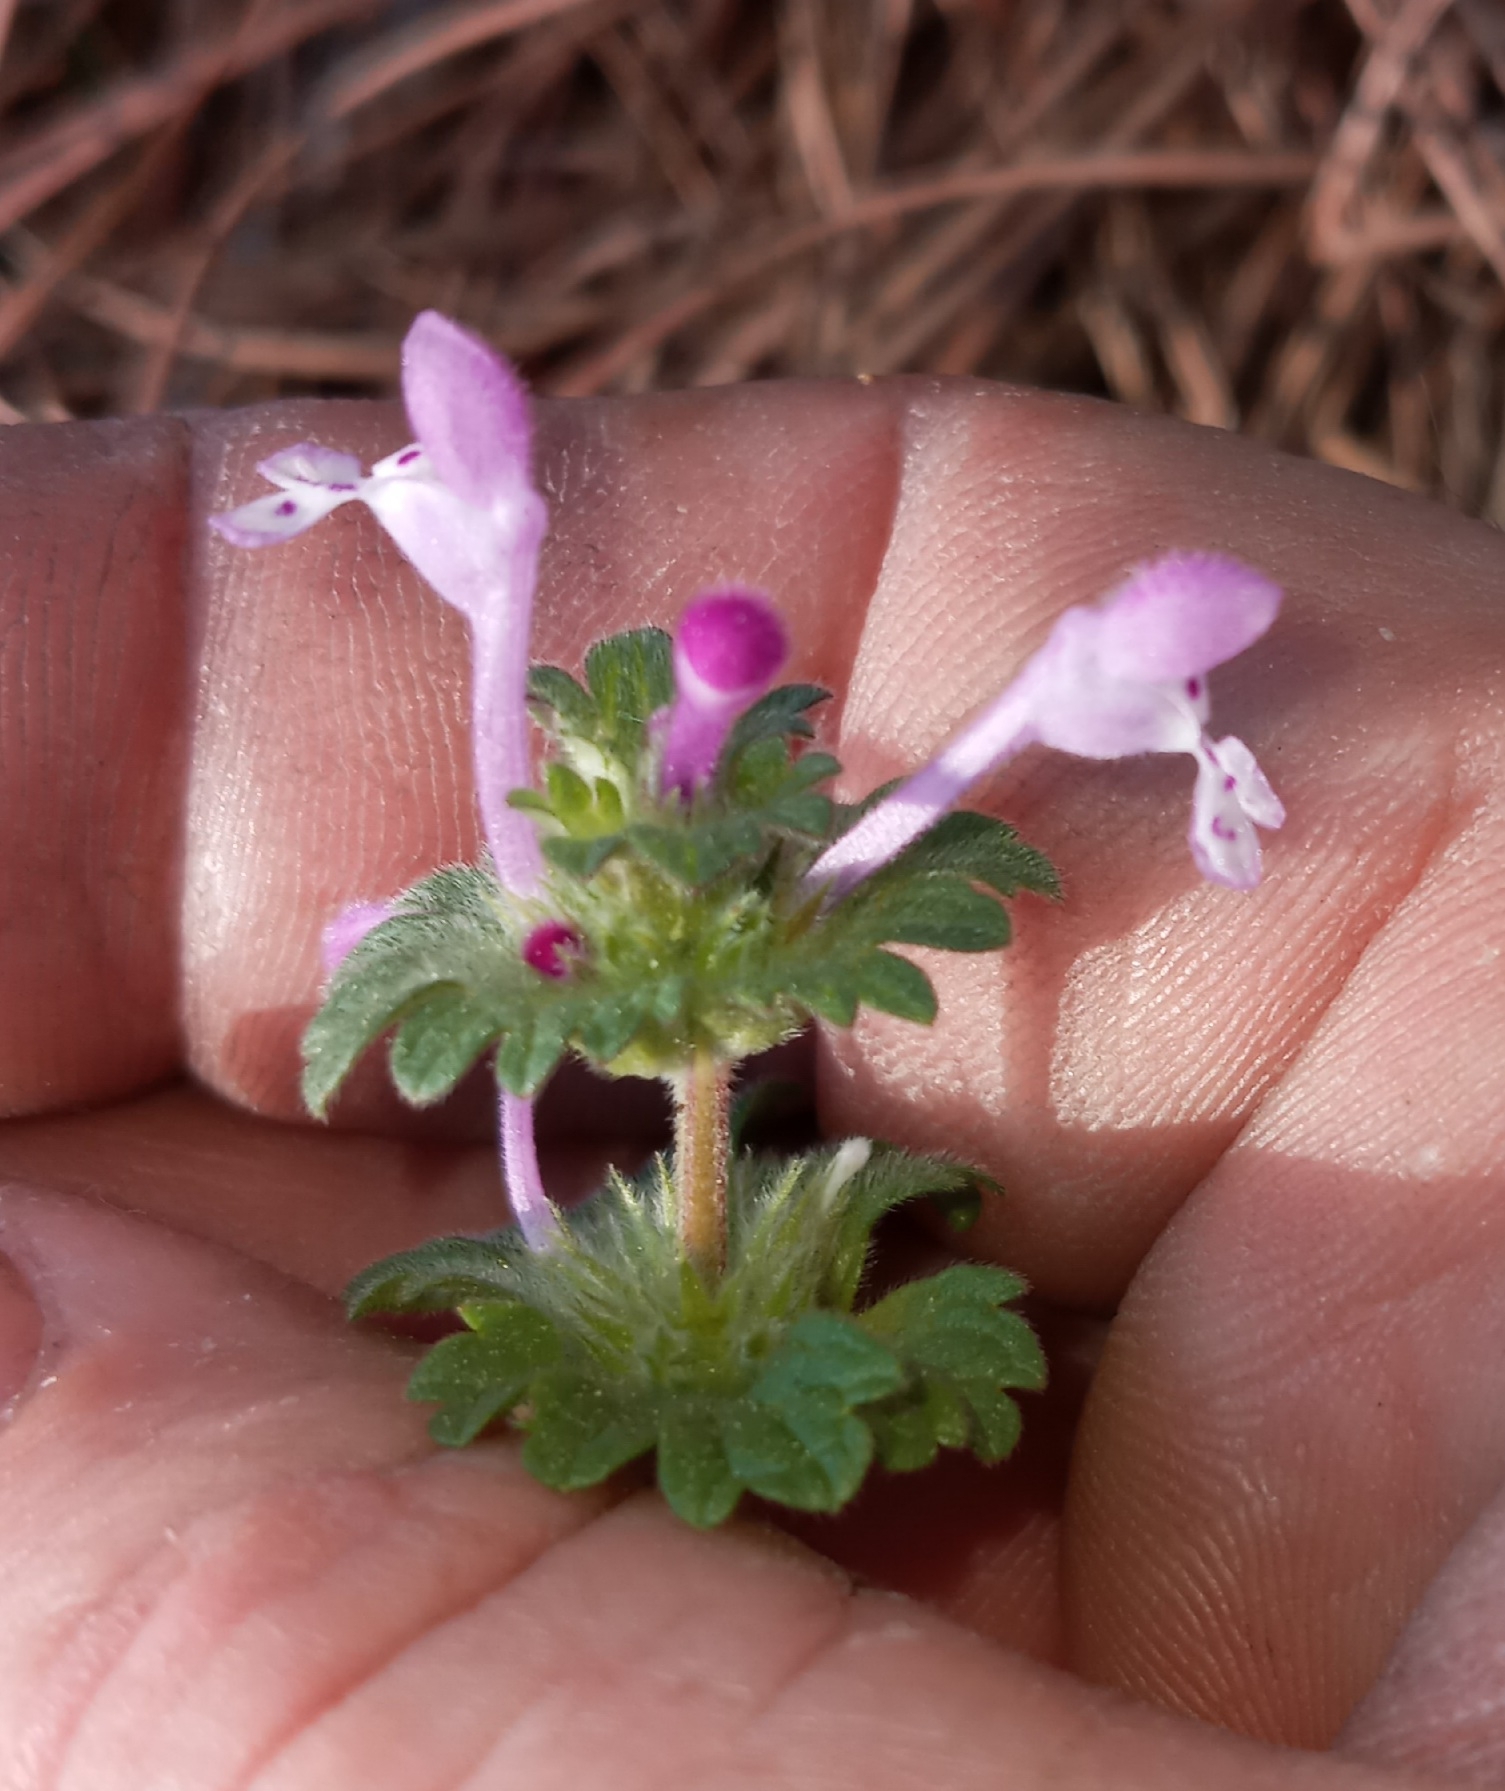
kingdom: Plantae
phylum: Tracheophyta
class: Magnoliopsida
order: Lamiales
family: Lamiaceae
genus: Lamium
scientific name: Lamium amplexicaule
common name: Henbit dead-nettle
